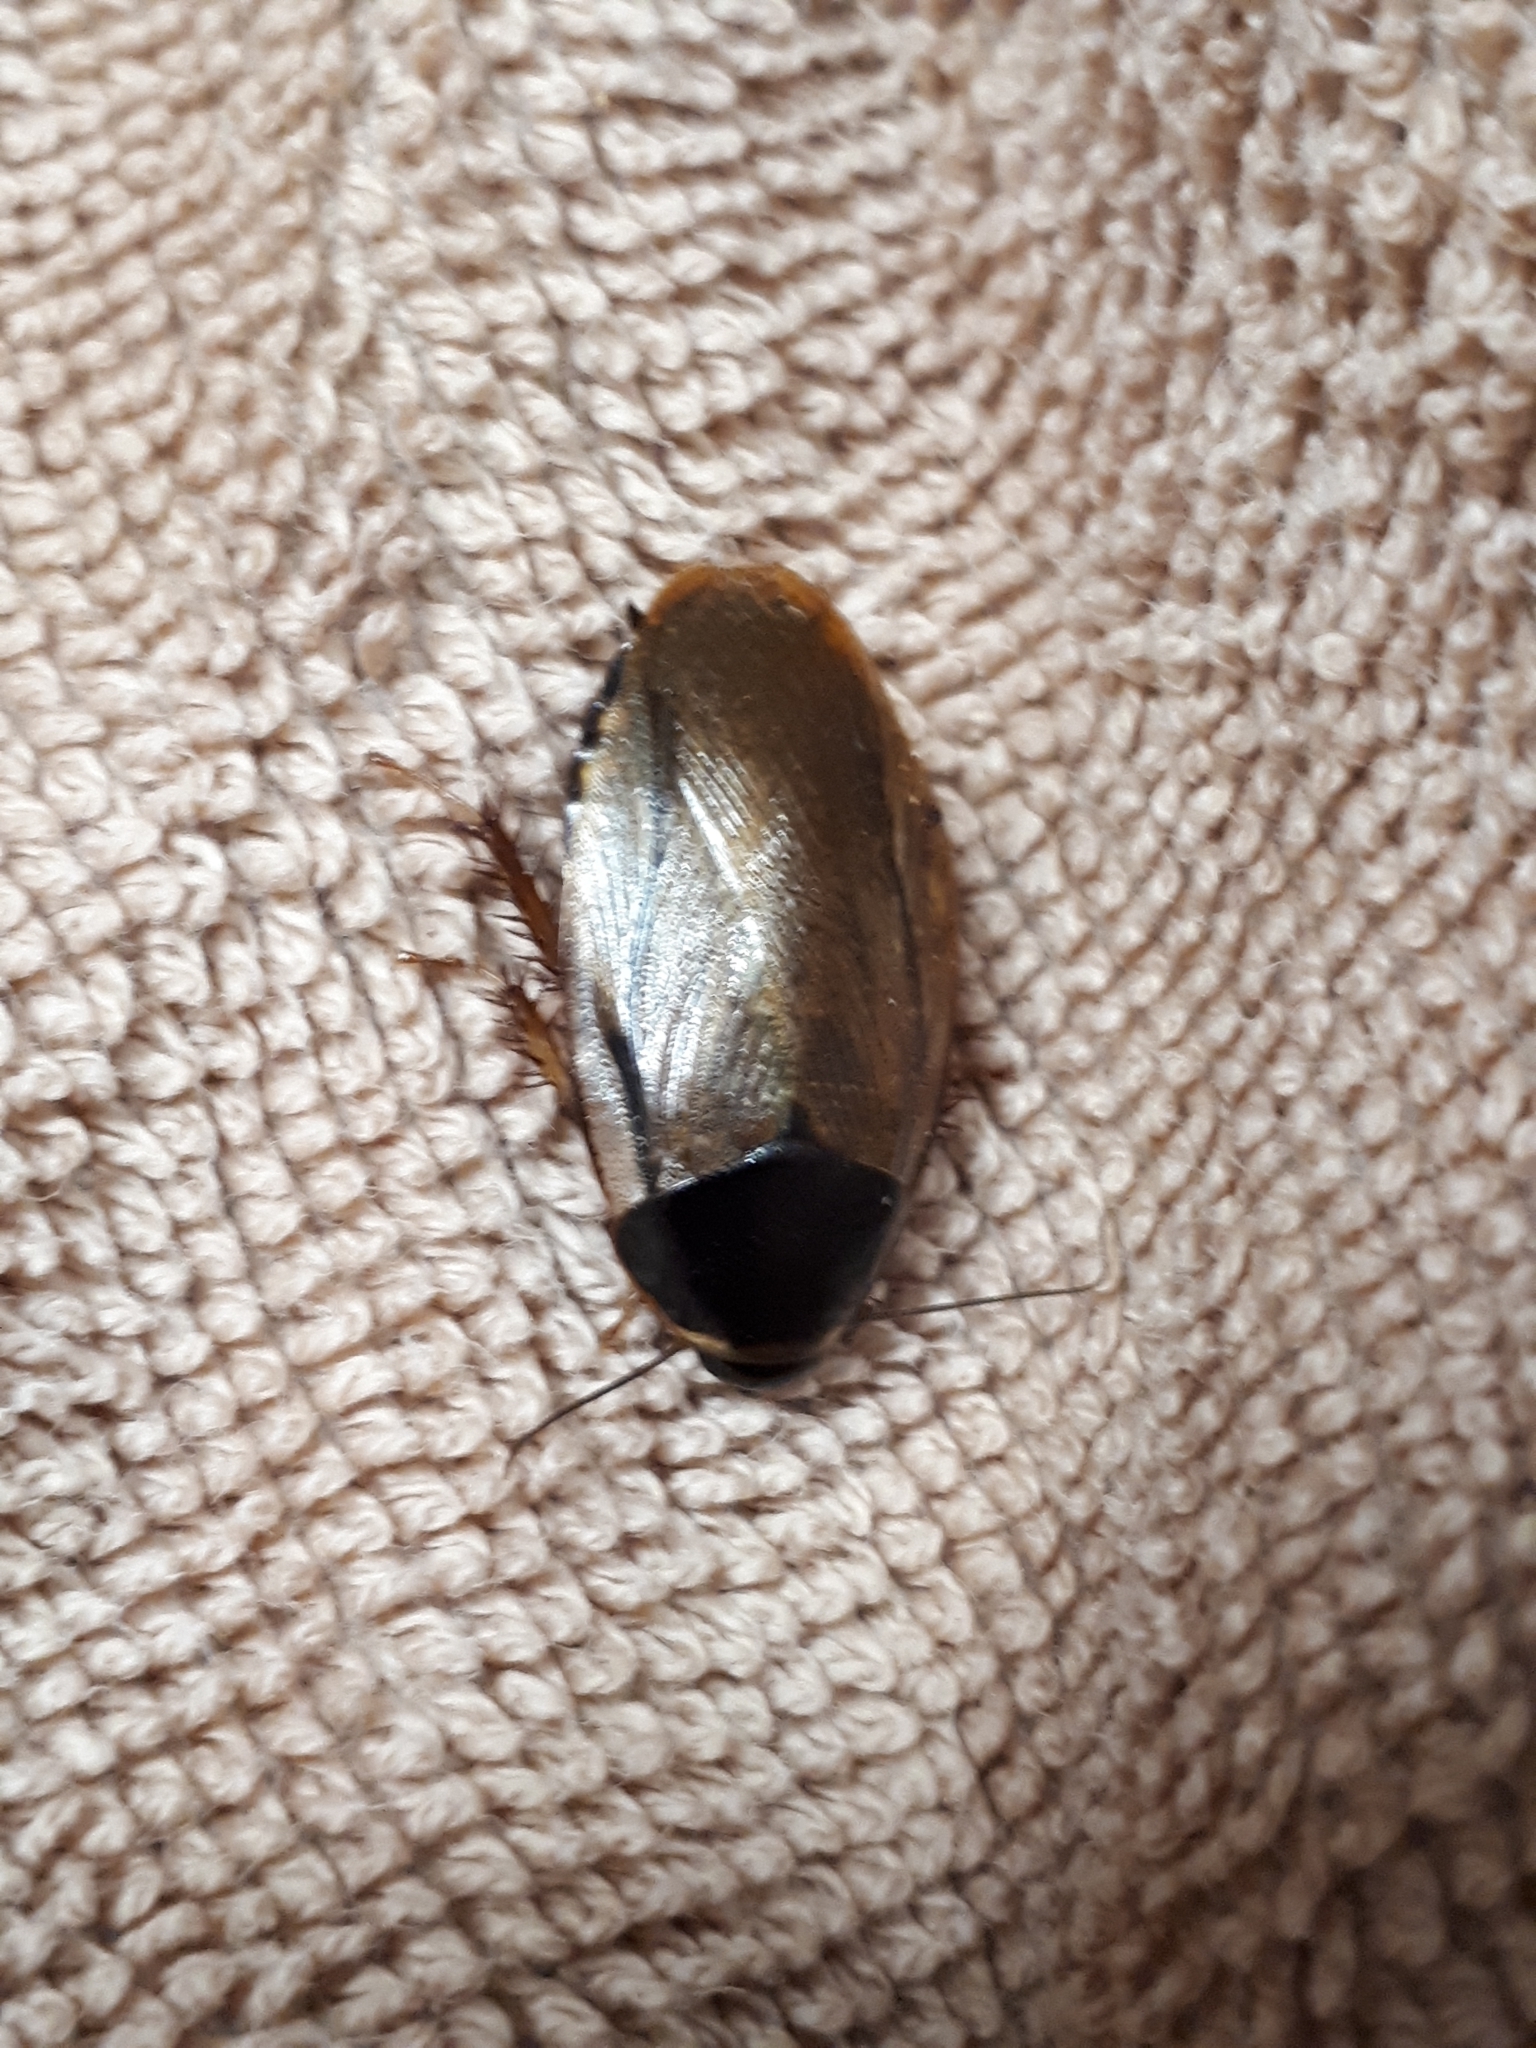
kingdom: Animalia
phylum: Arthropoda
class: Insecta
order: Blattodea
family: Blaberidae
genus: Pycnoscelus
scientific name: Pycnoscelus surinamensis
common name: Surinam cockroach
